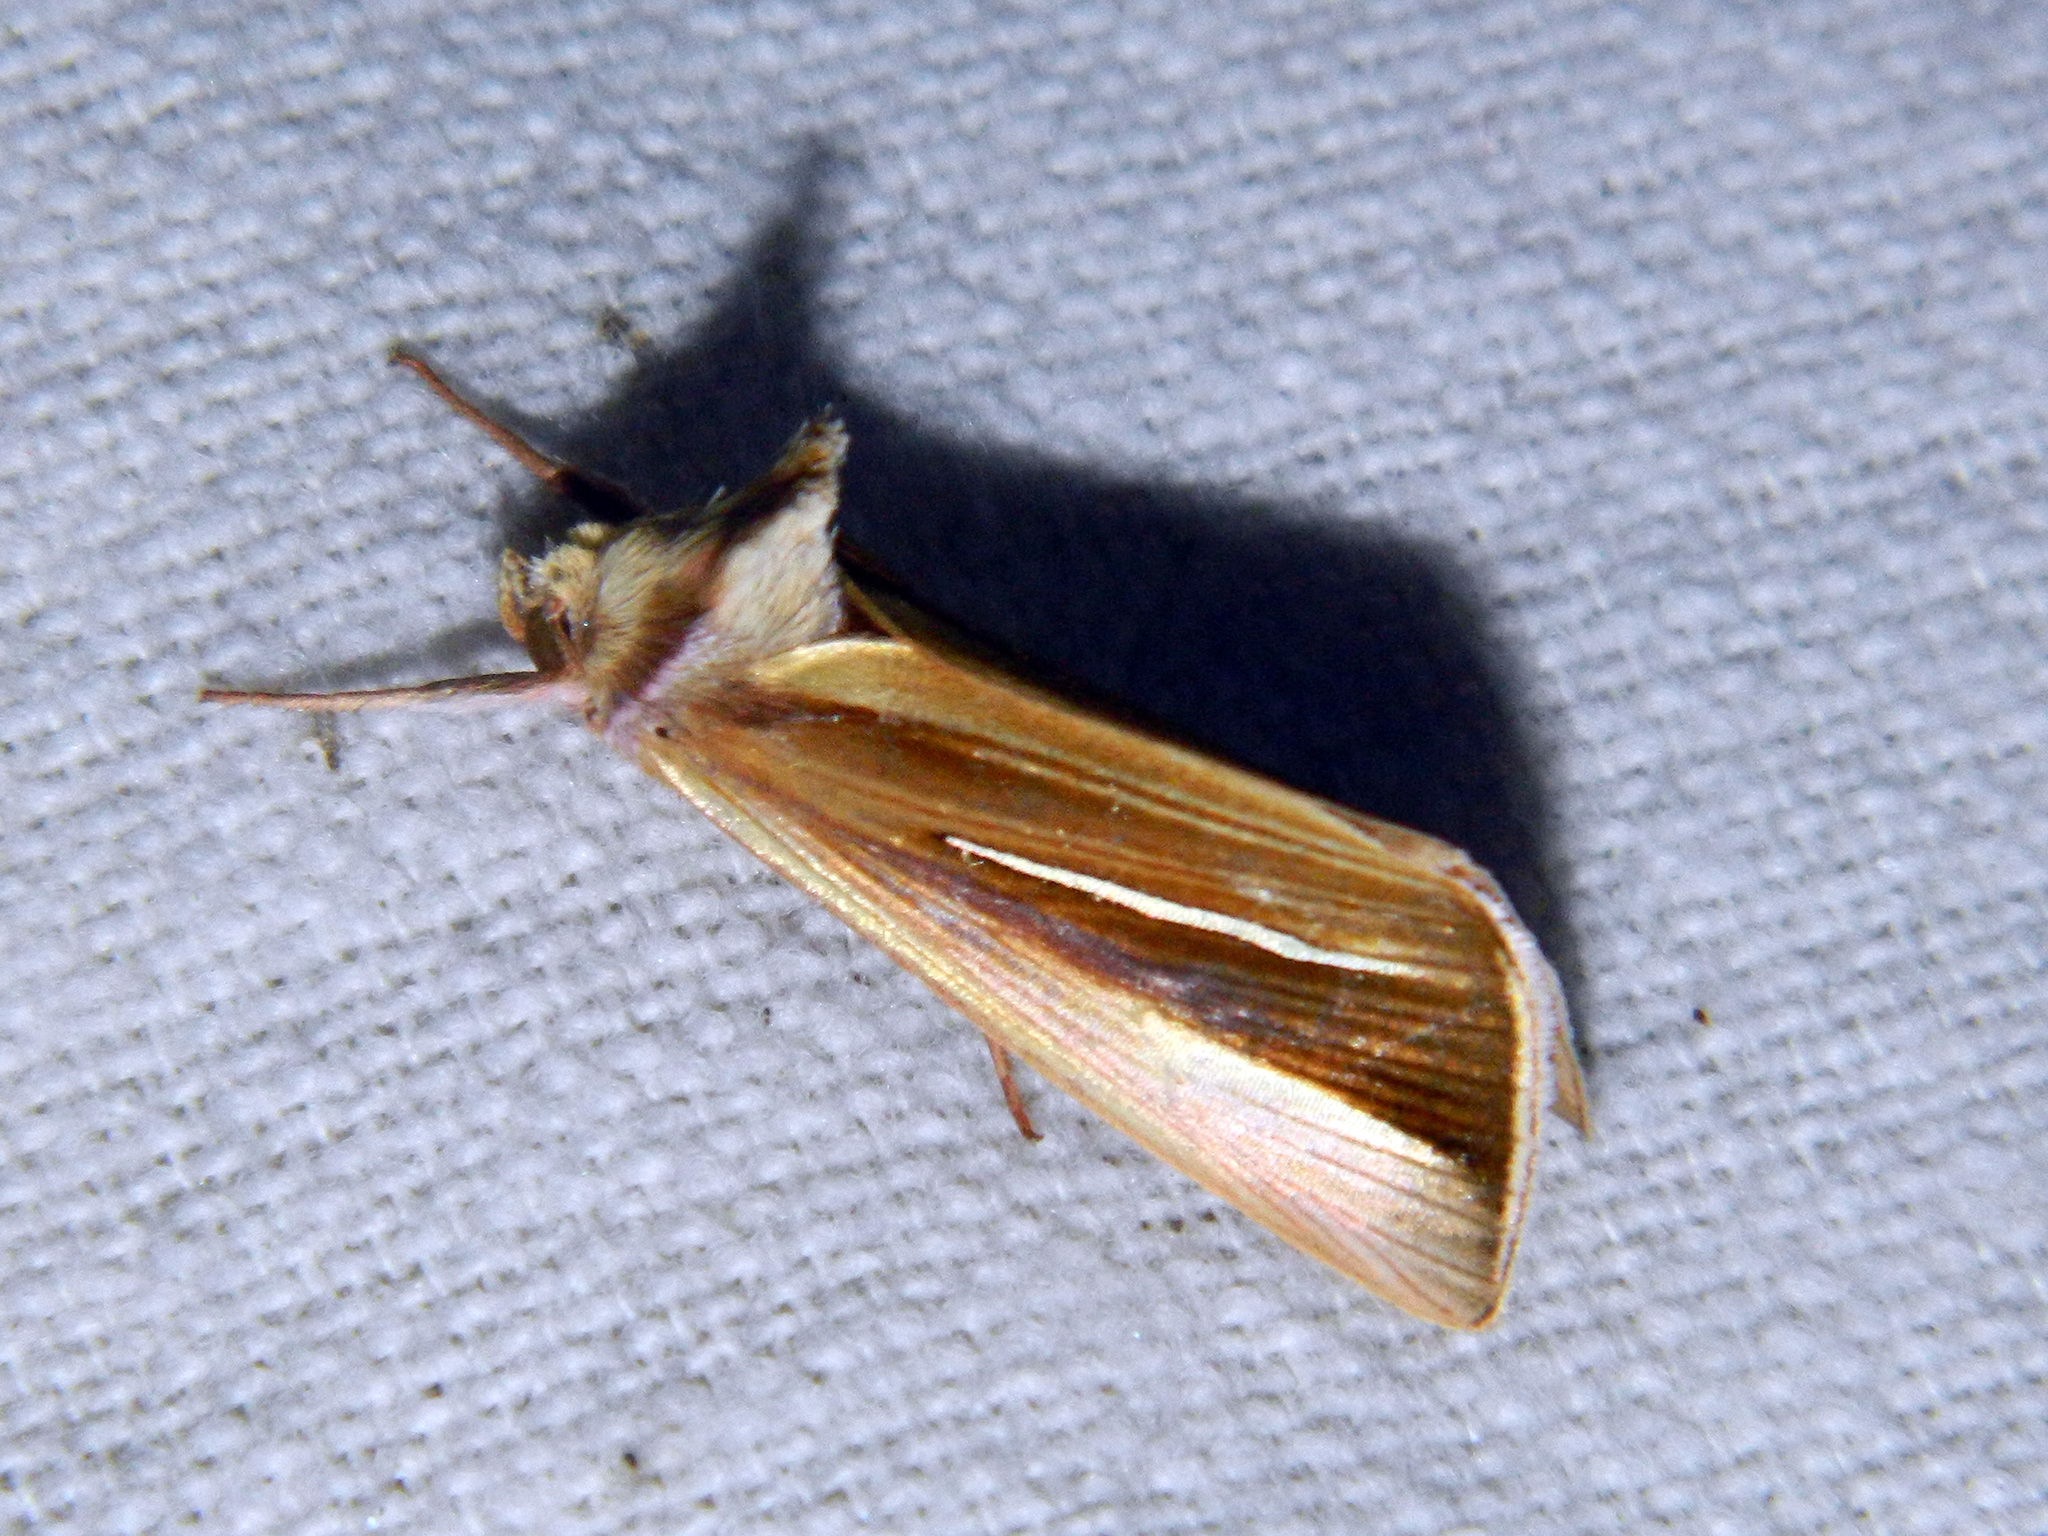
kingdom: Animalia
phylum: Arthropoda
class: Insecta
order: Lepidoptera
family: Noctuidae
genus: Plusia
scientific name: Plusia venusta
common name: White-streaked looper moth
